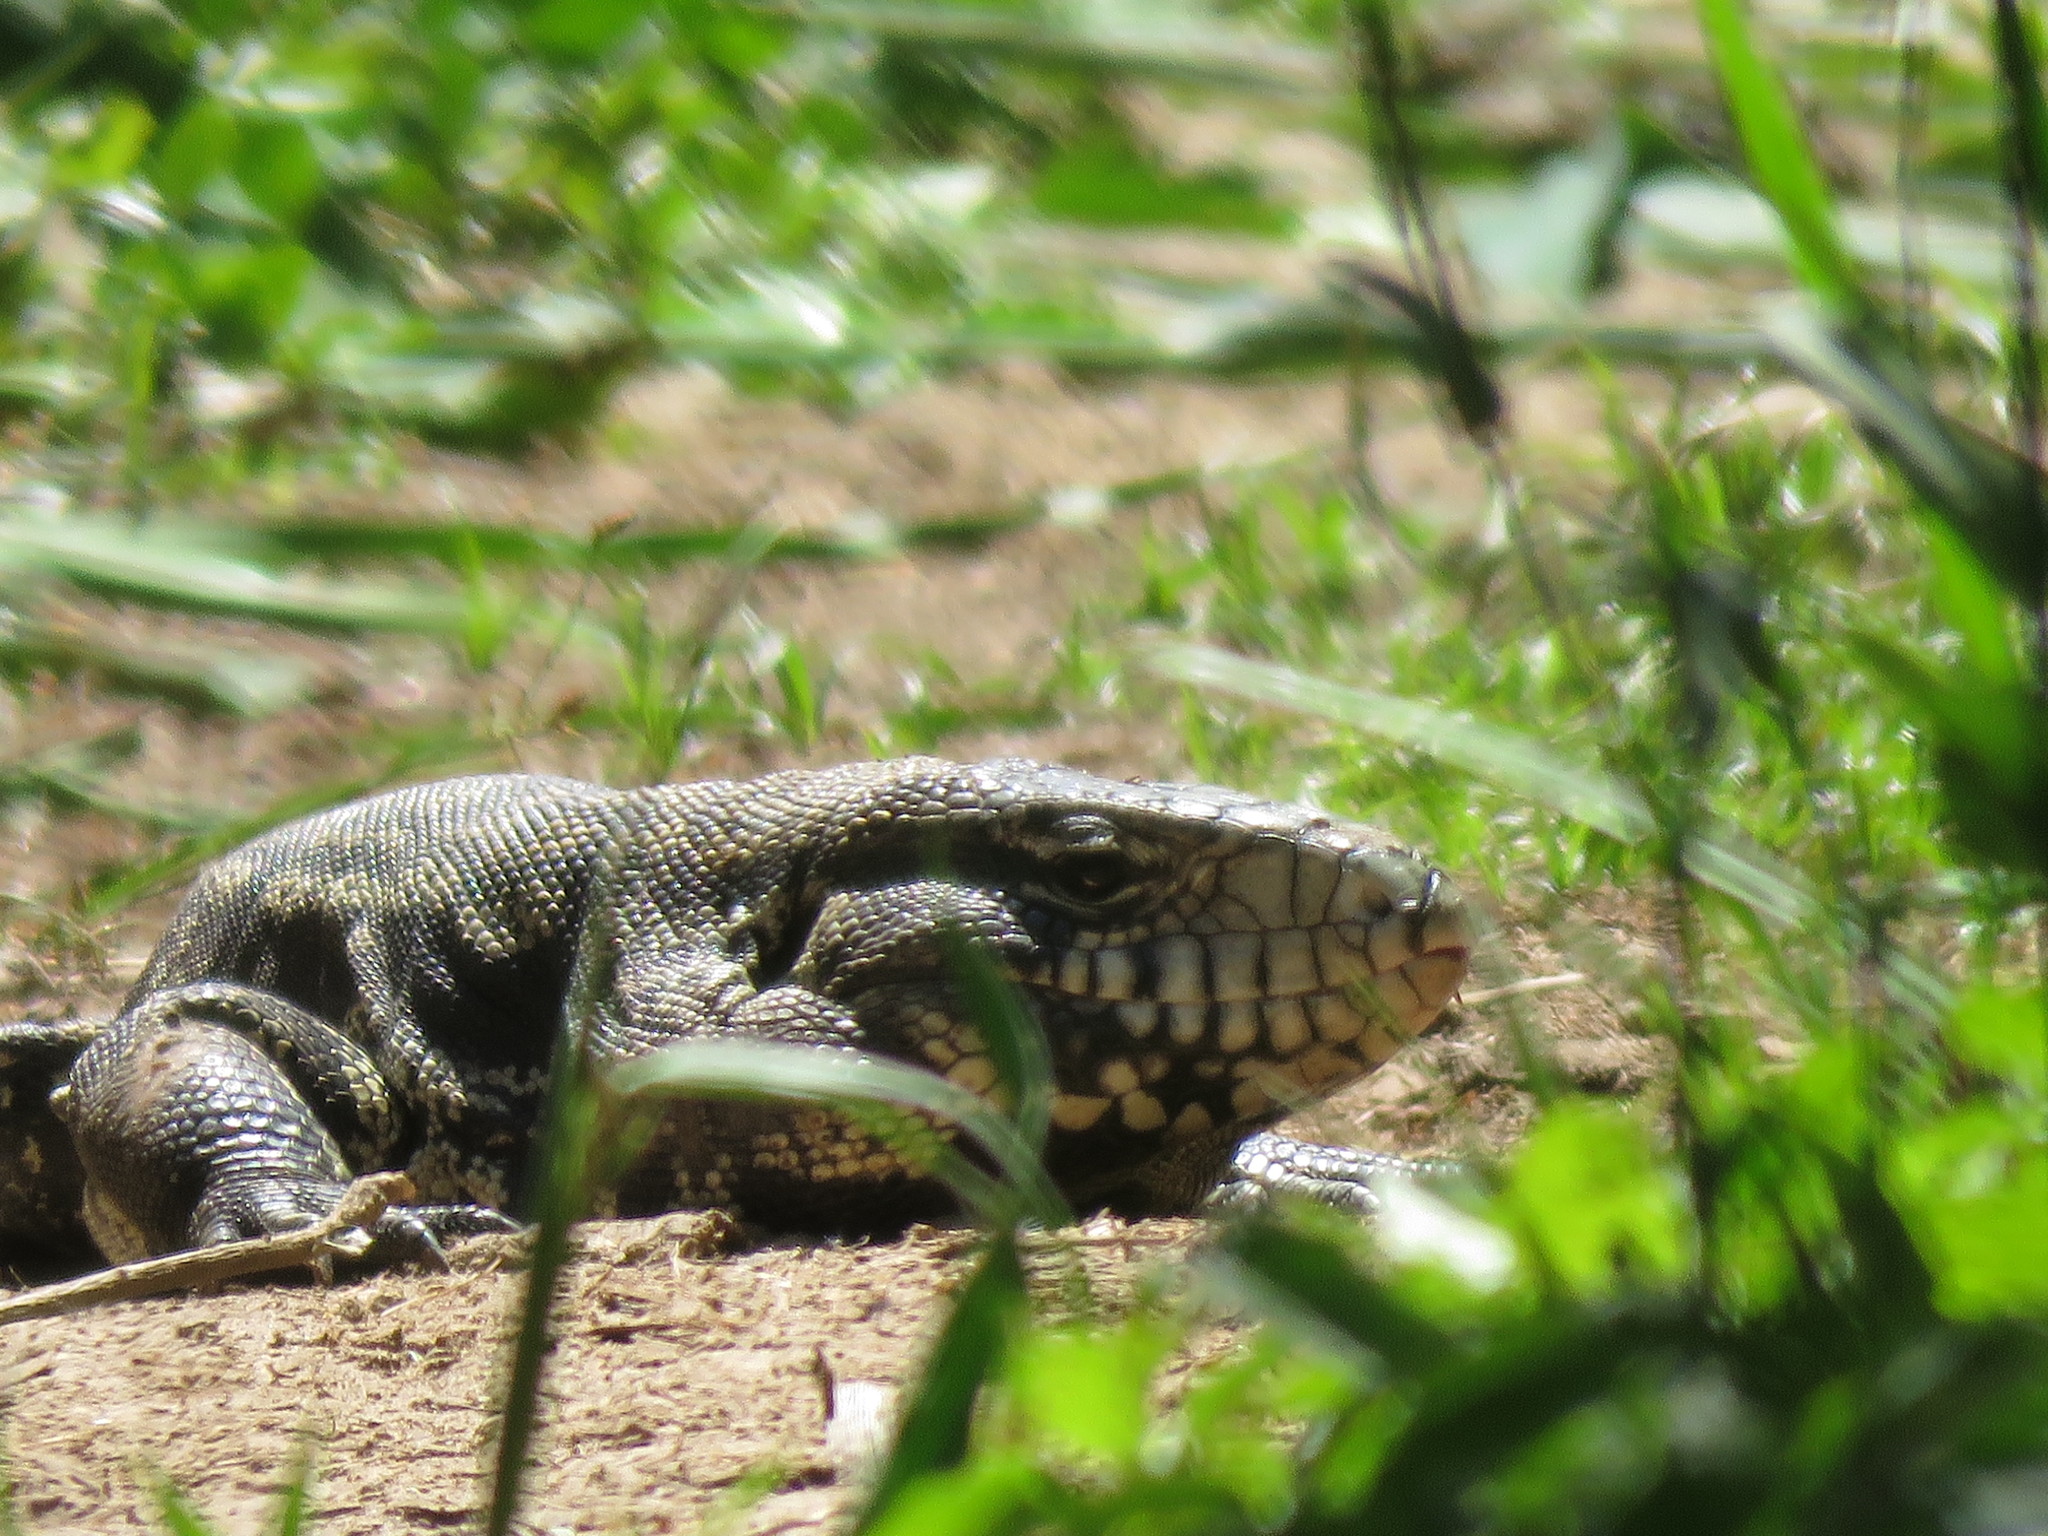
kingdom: Animalia
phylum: Chordata
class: Squamata
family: Teiidae
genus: Salvator
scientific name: Salvator merianae
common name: Argentine black and white tegu
